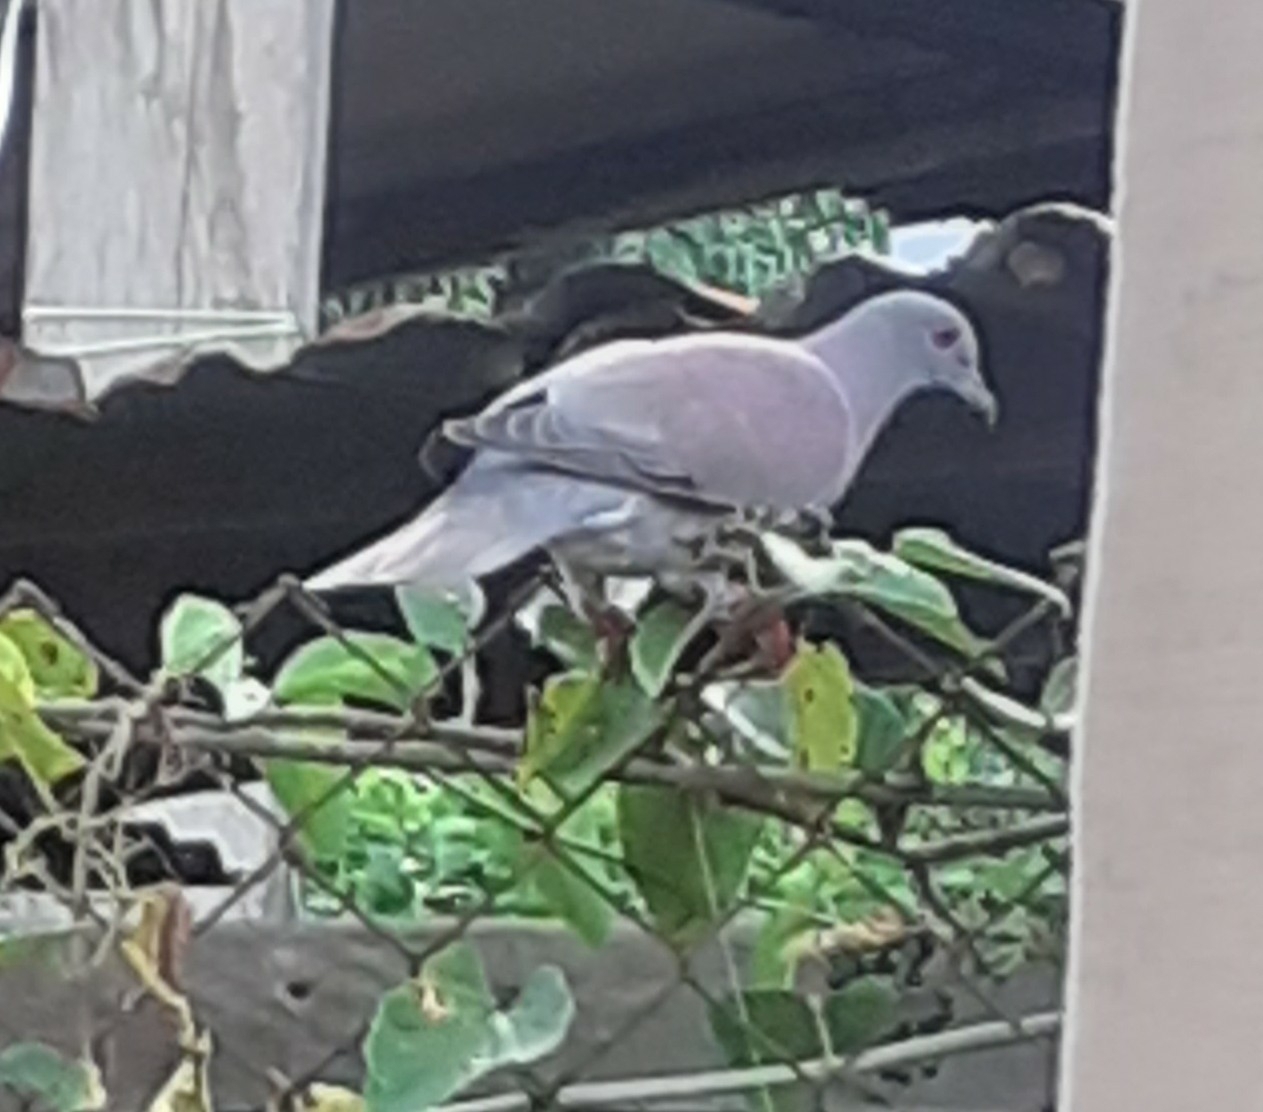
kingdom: Animalia
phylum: Chordata
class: Aves
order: Columbiformes
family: Columbidae
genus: Patagioenas
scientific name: Patagioenas cayennensis
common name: Pale-vented pigeon
